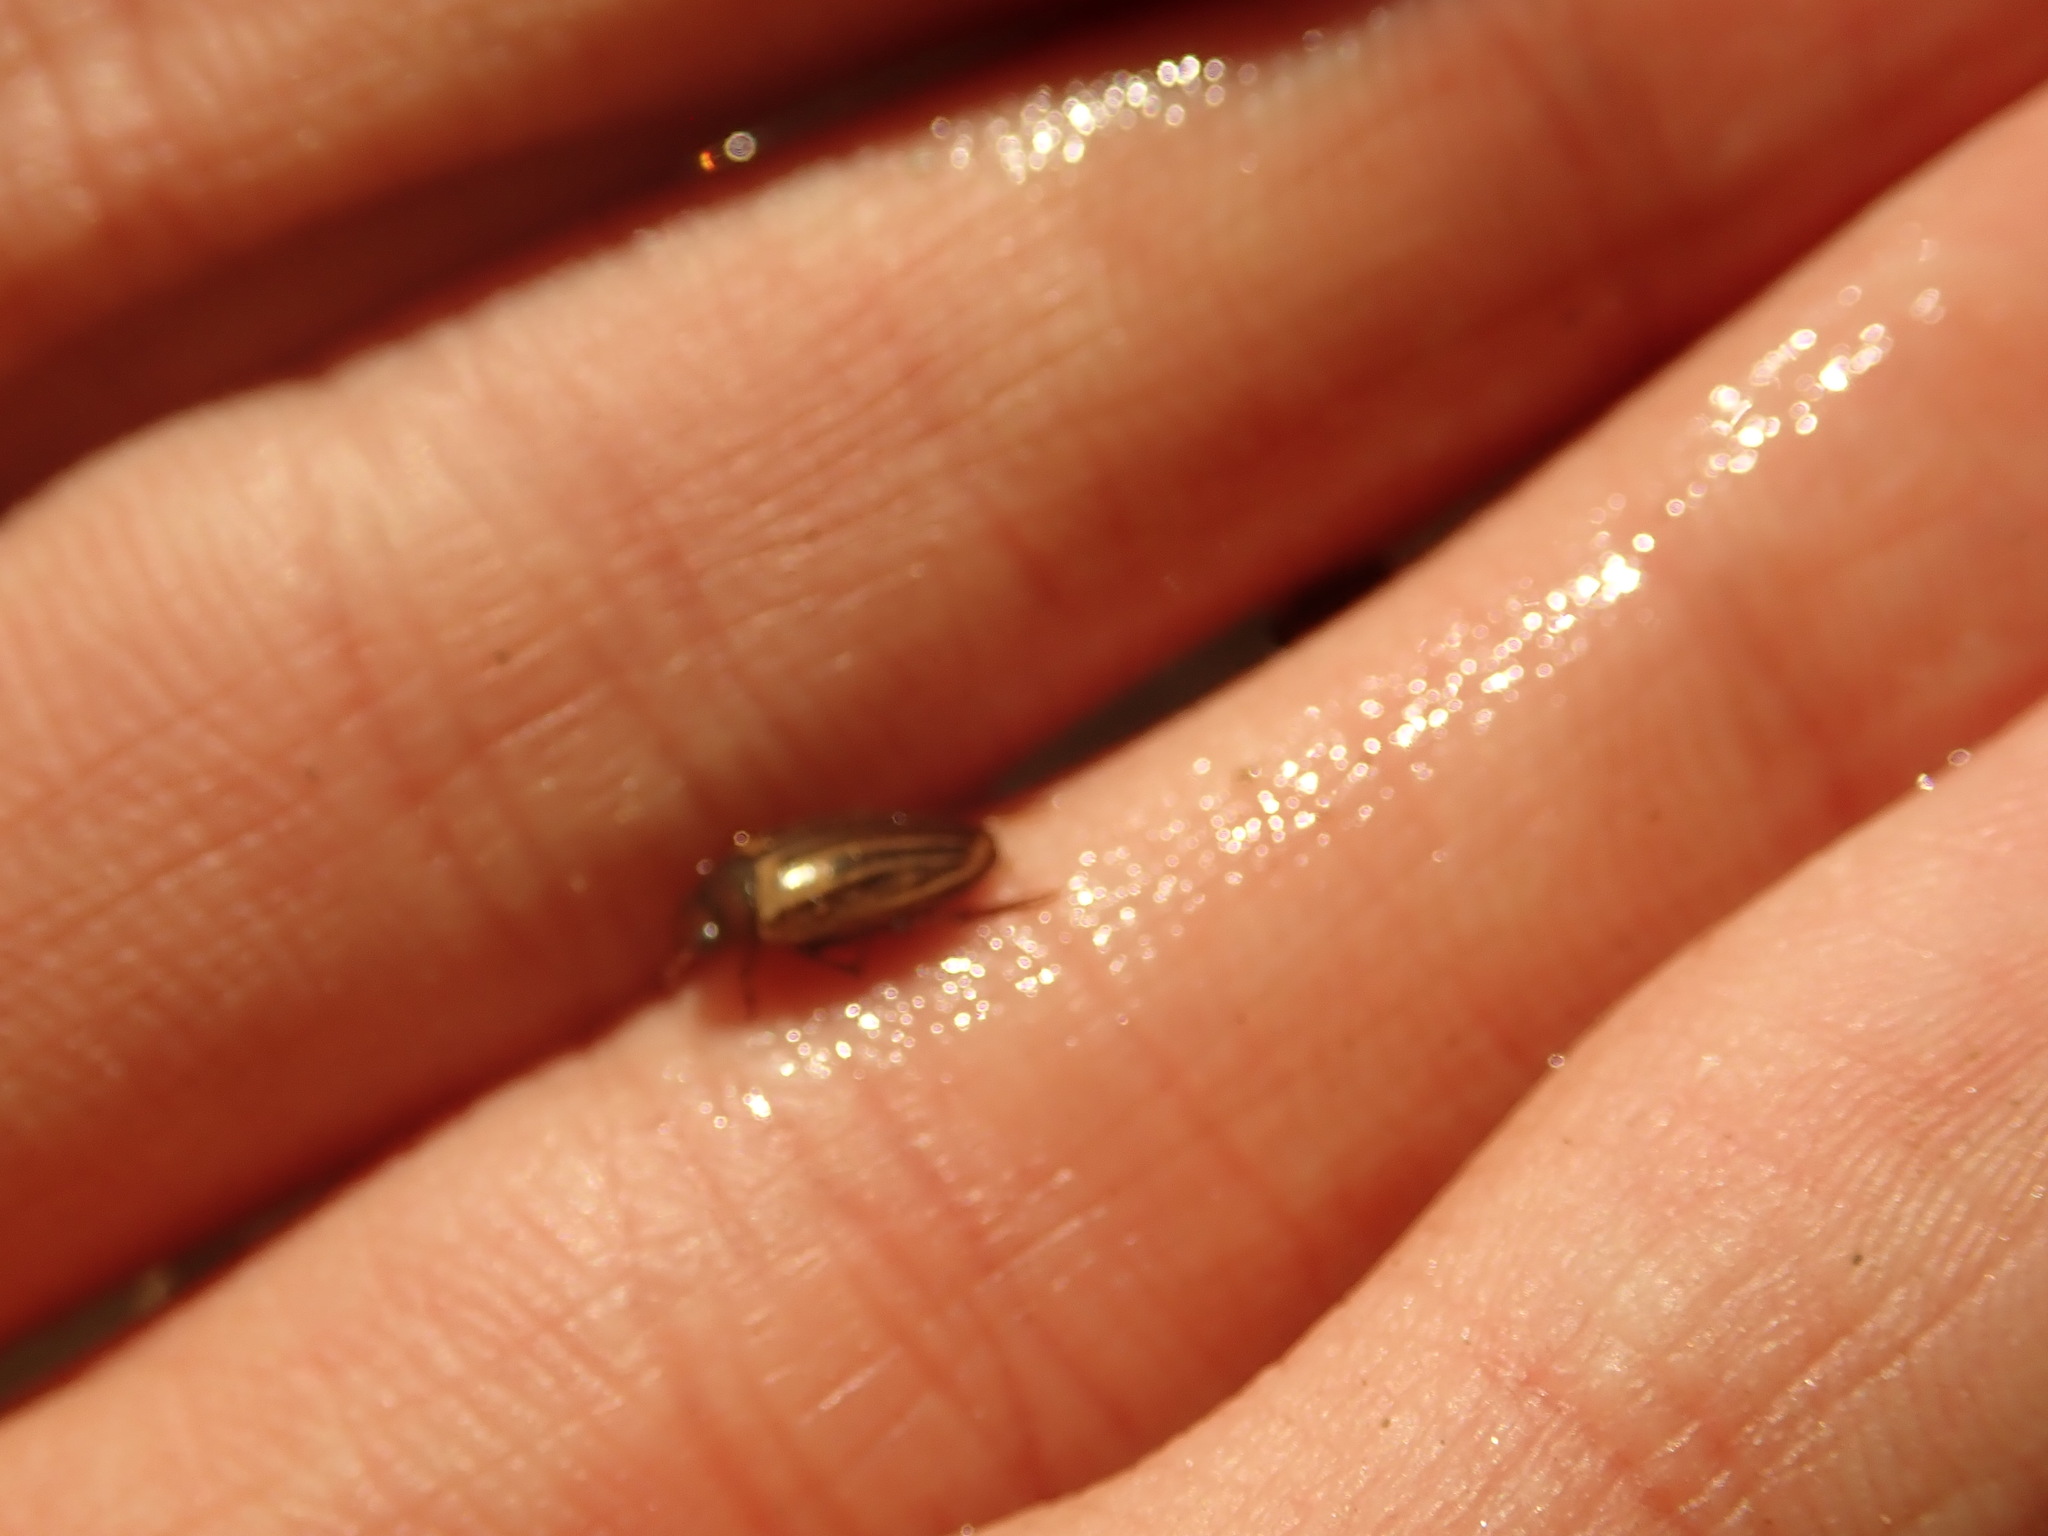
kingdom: Animalia
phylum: Arthropoda
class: Insecta
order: Coleoptera
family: Dytiscidae
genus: Agabus
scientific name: Agabus disintegratus
